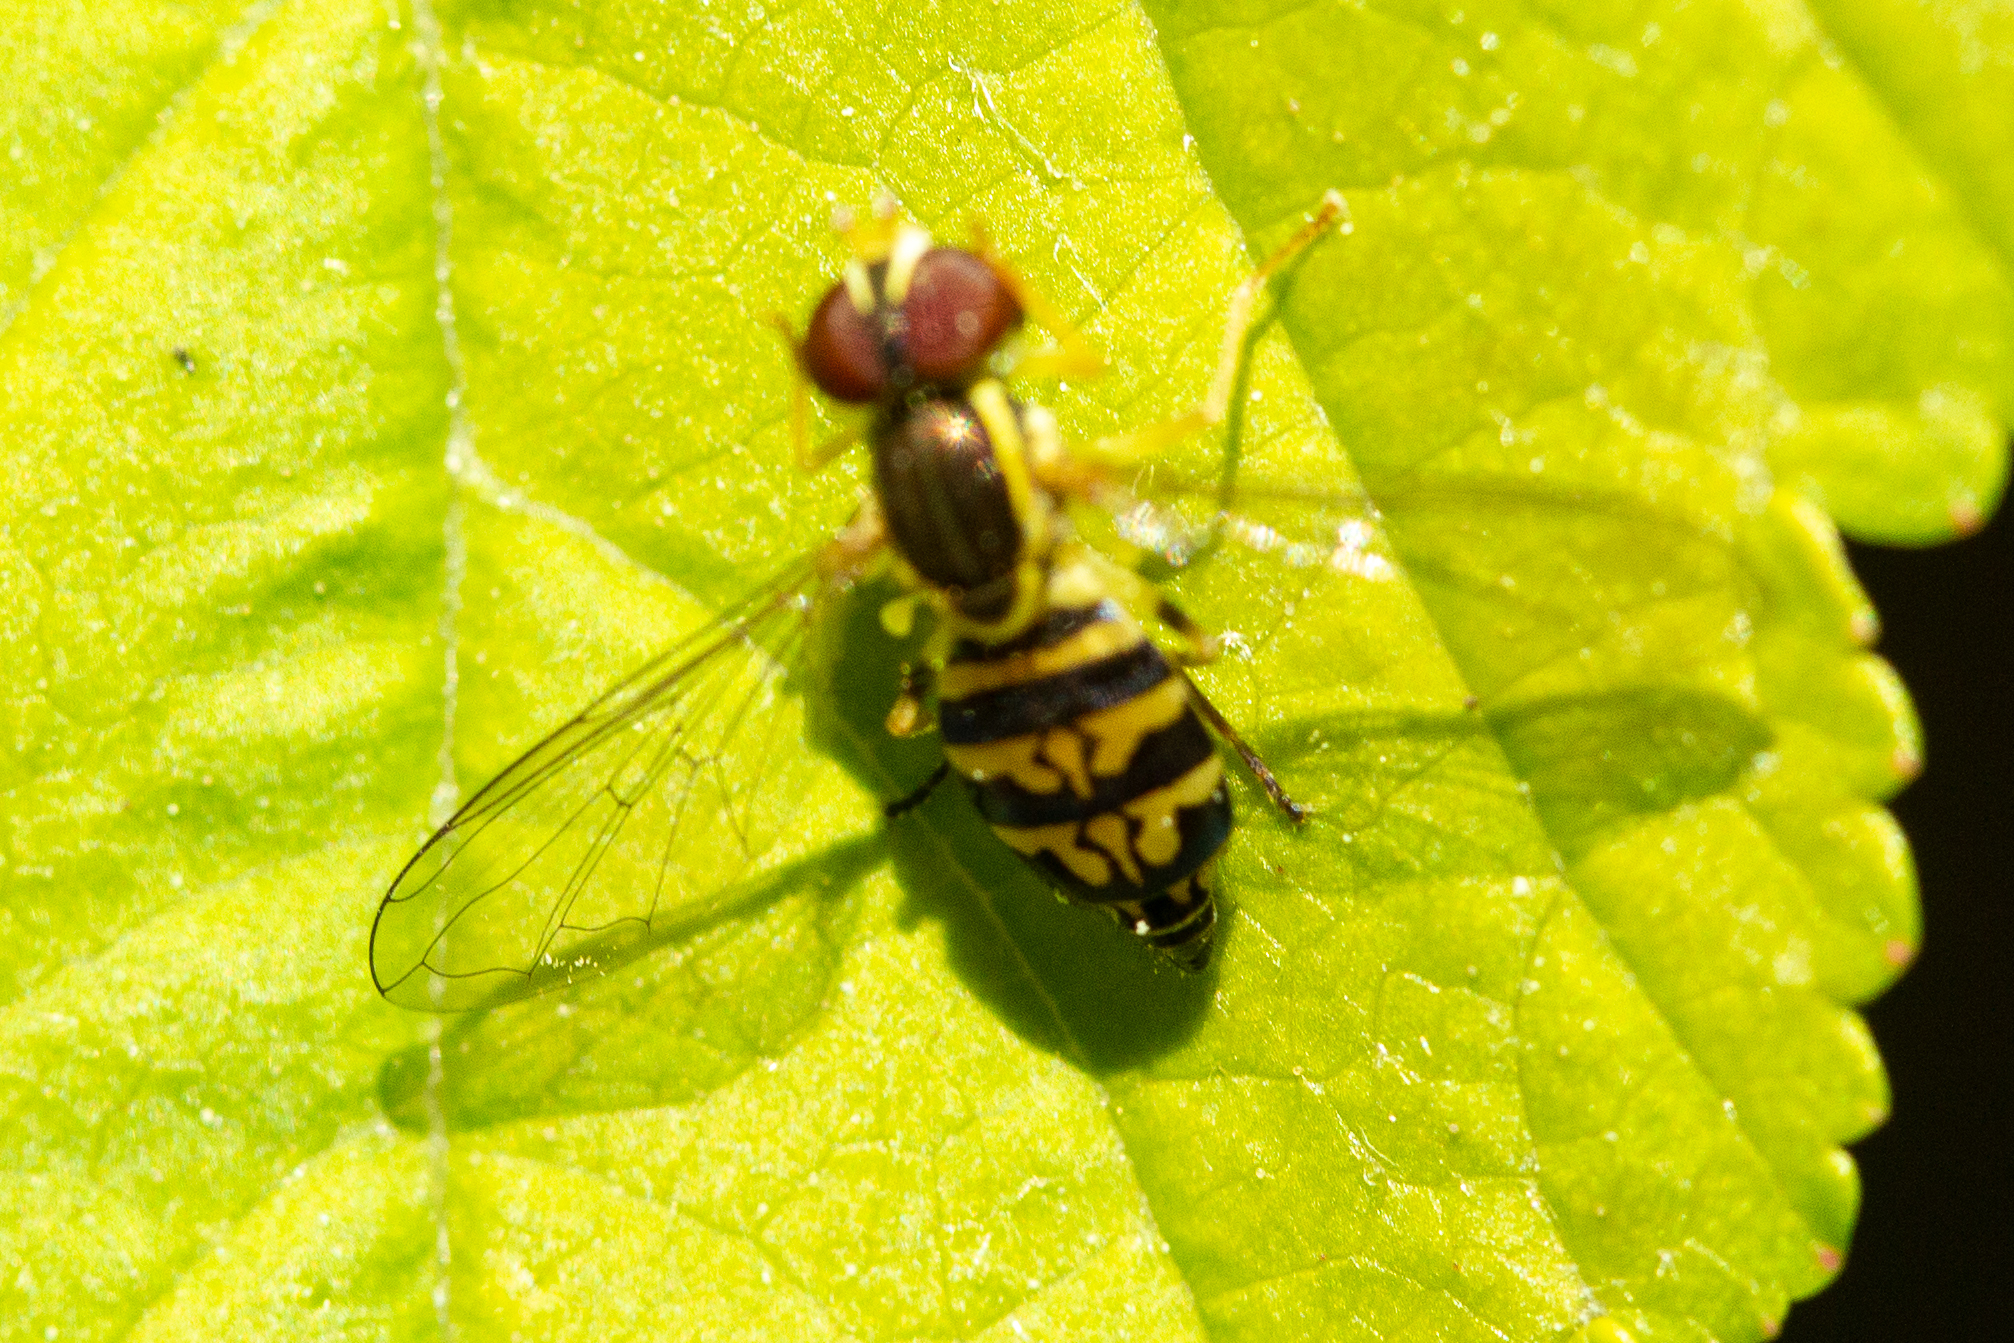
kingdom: Animalia
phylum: Arthropoda
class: Insecta
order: Diptera
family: Syrphidae
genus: Toxomerus
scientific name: Toxomerus geminatus
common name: Eastern calligrapher
